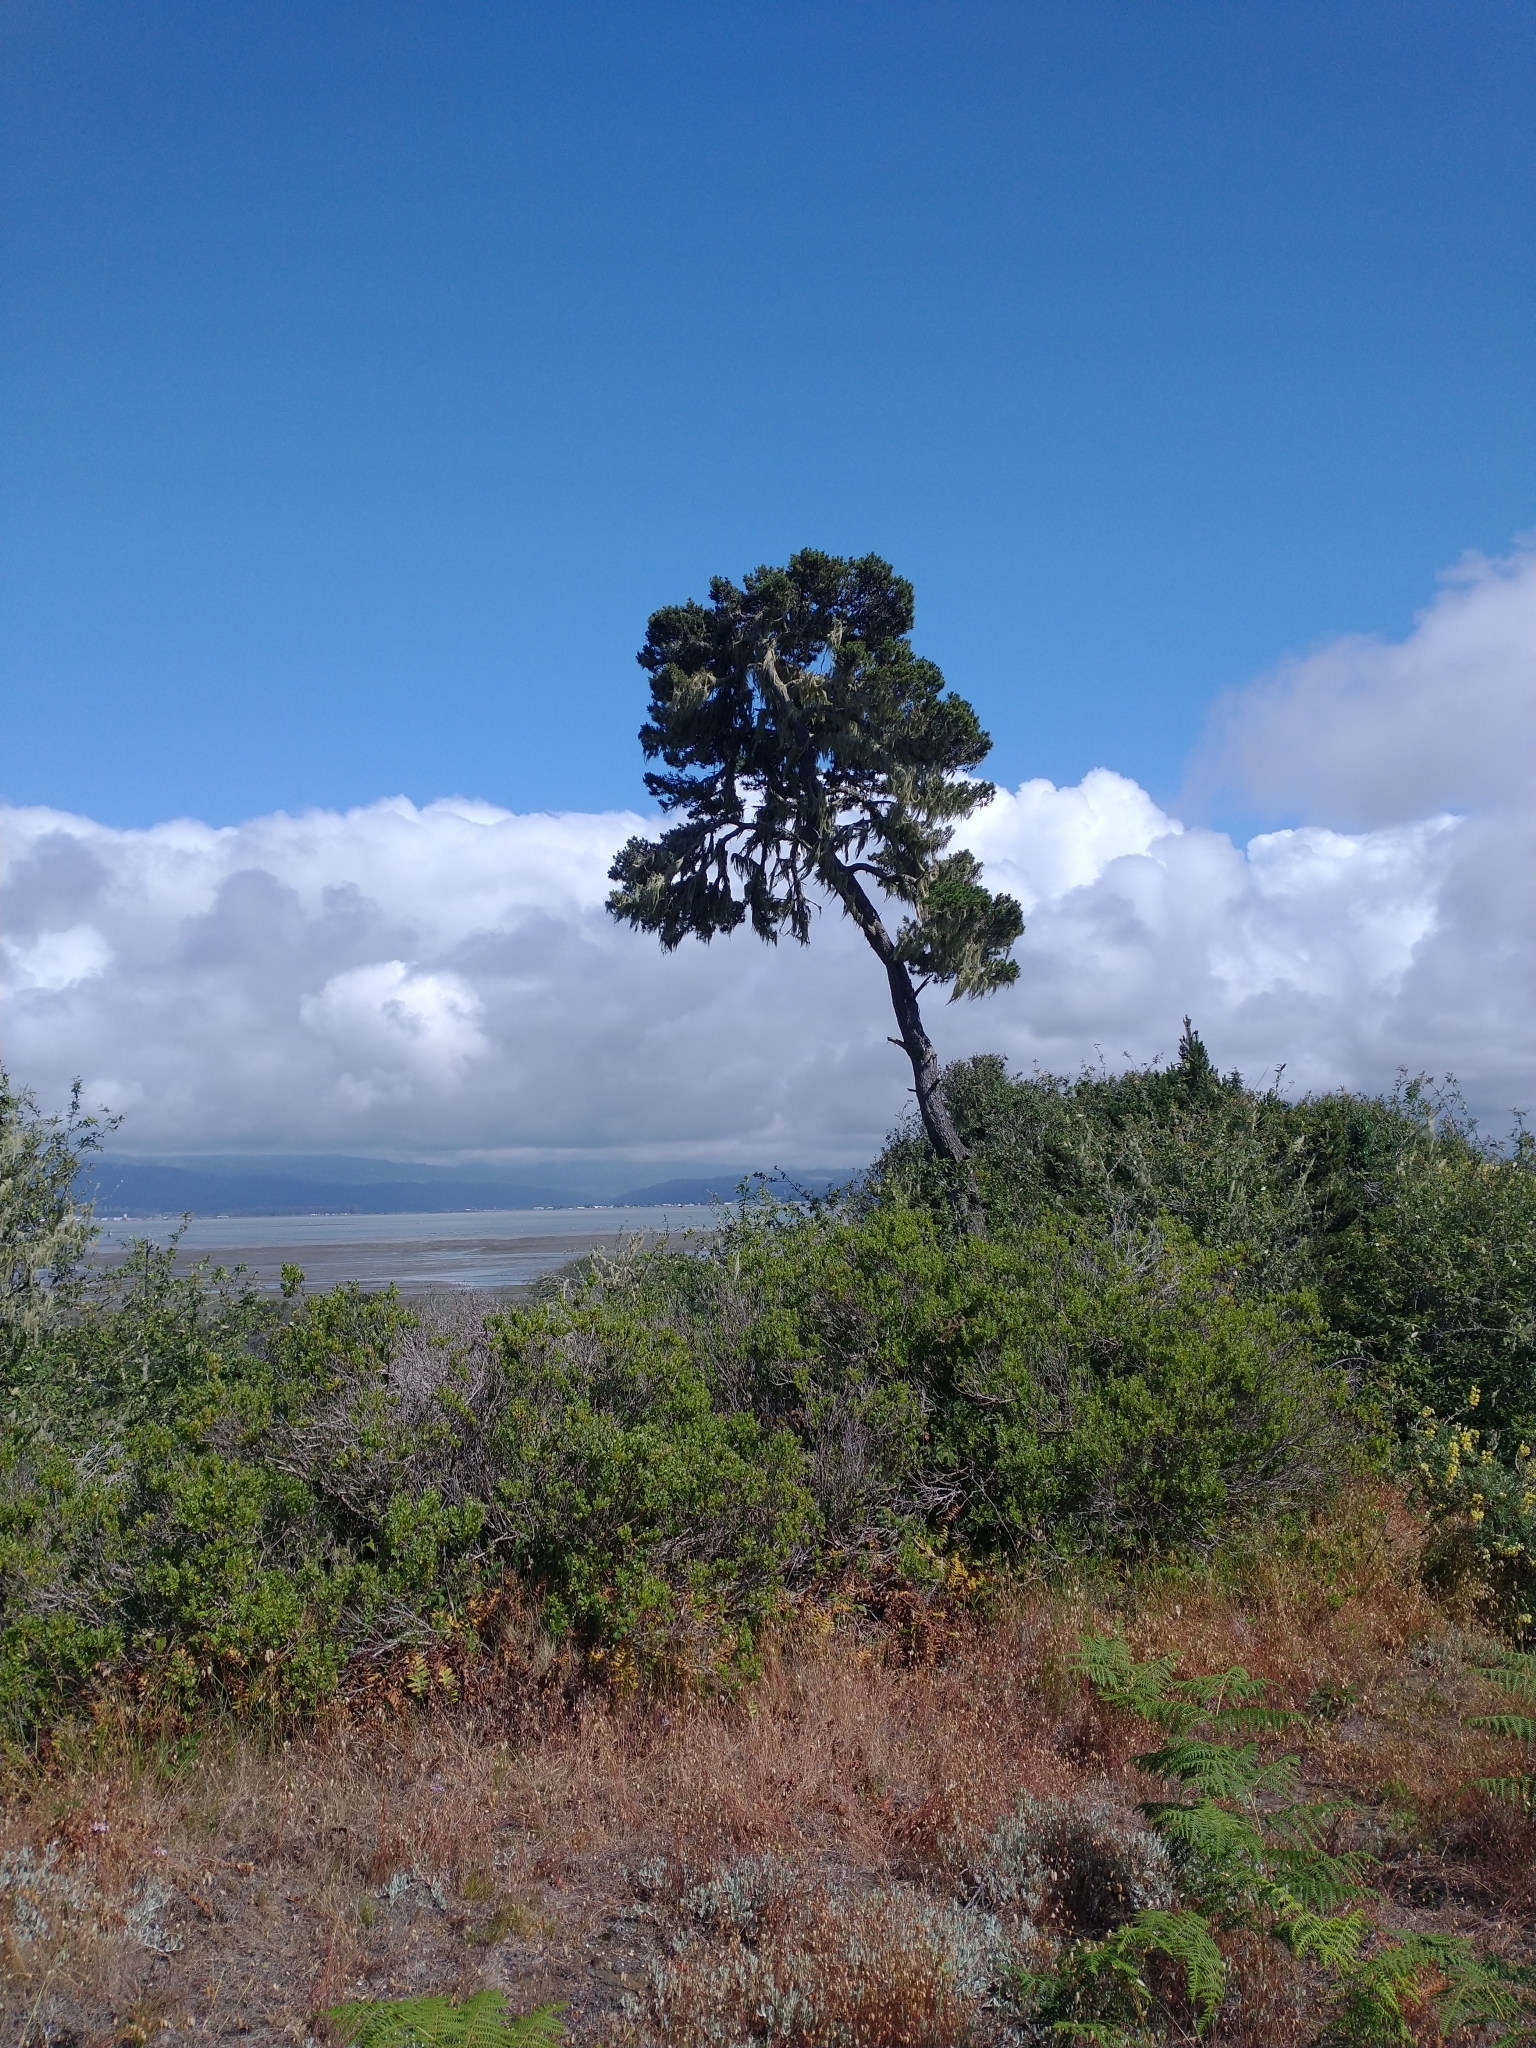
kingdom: Plantae
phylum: Tracheophyta
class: Pinopsida
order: Pinales
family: Pinaceae
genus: Pinus
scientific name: Pinus contorta
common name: Lodgepole pine
